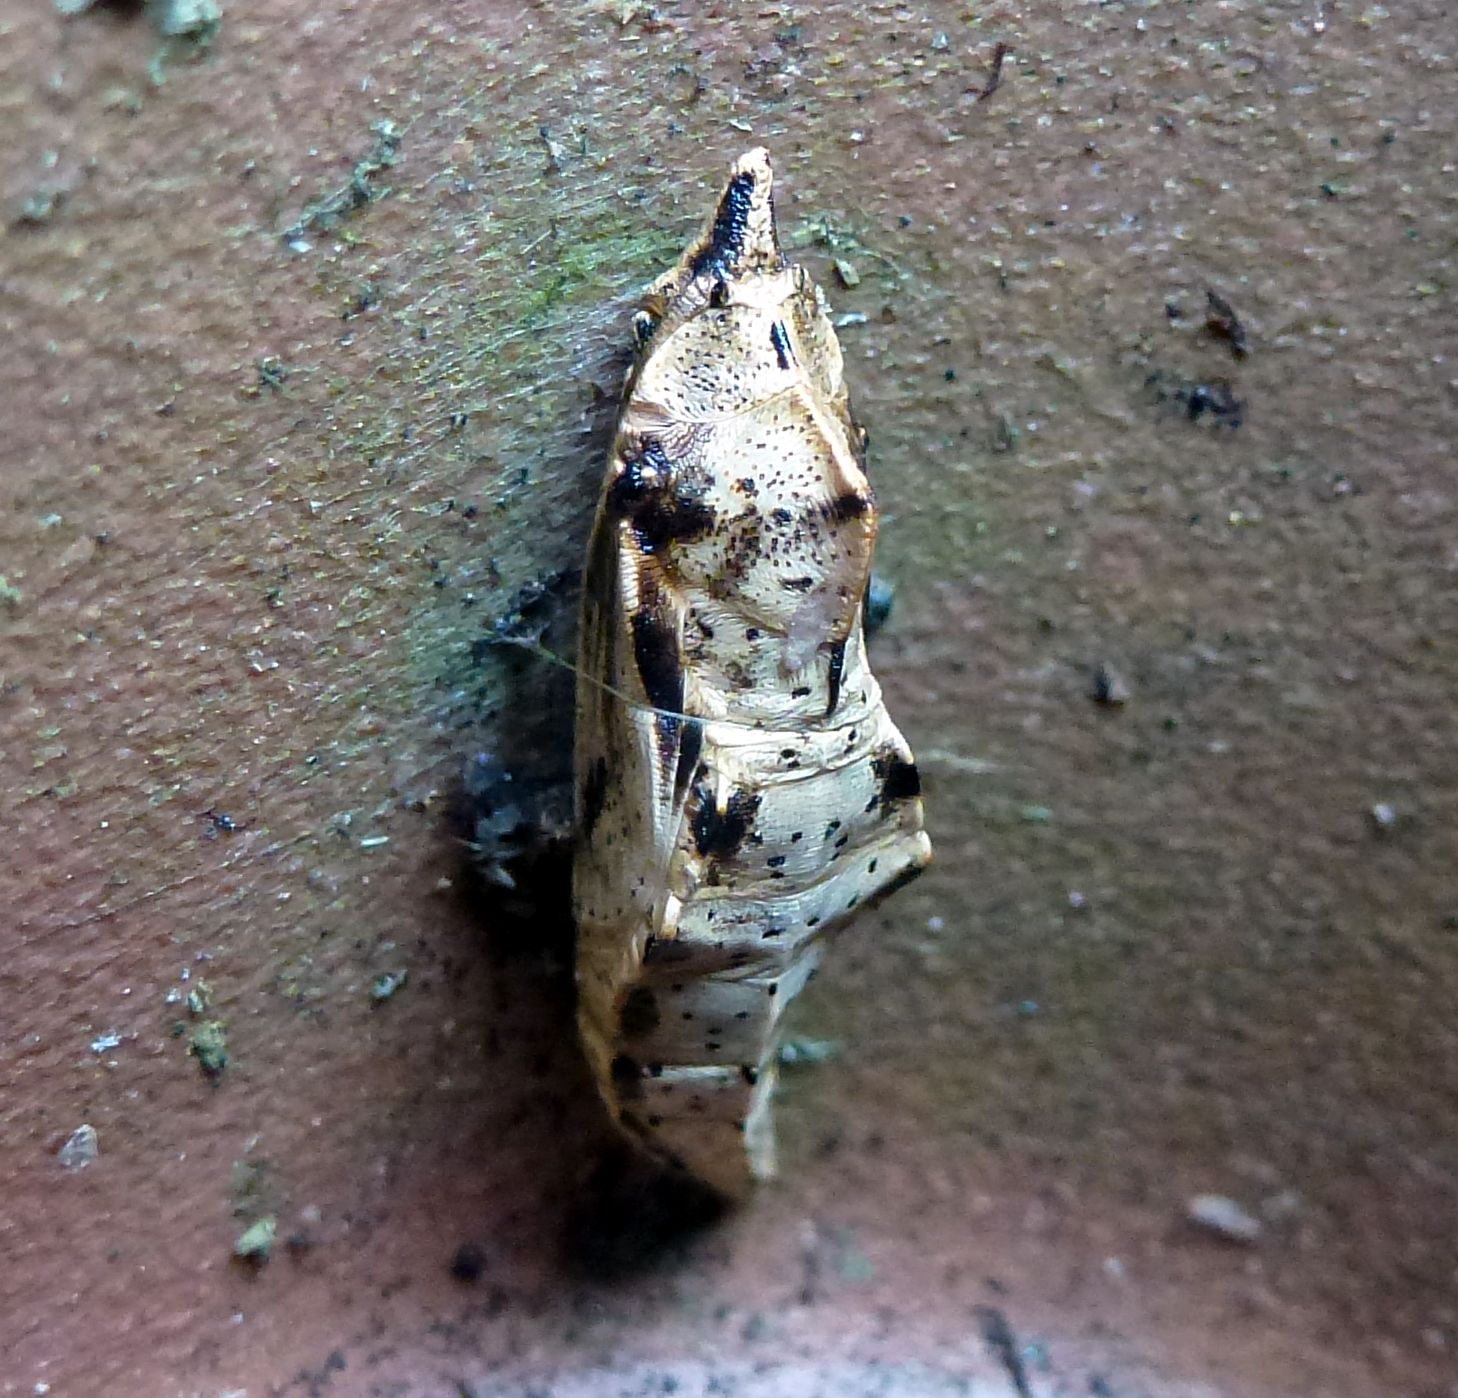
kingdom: Animalia
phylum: Arthropoda
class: Insecta
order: Lepidoptera
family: Pieridae
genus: Pieris
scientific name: Pieris brassicae
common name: Large white
